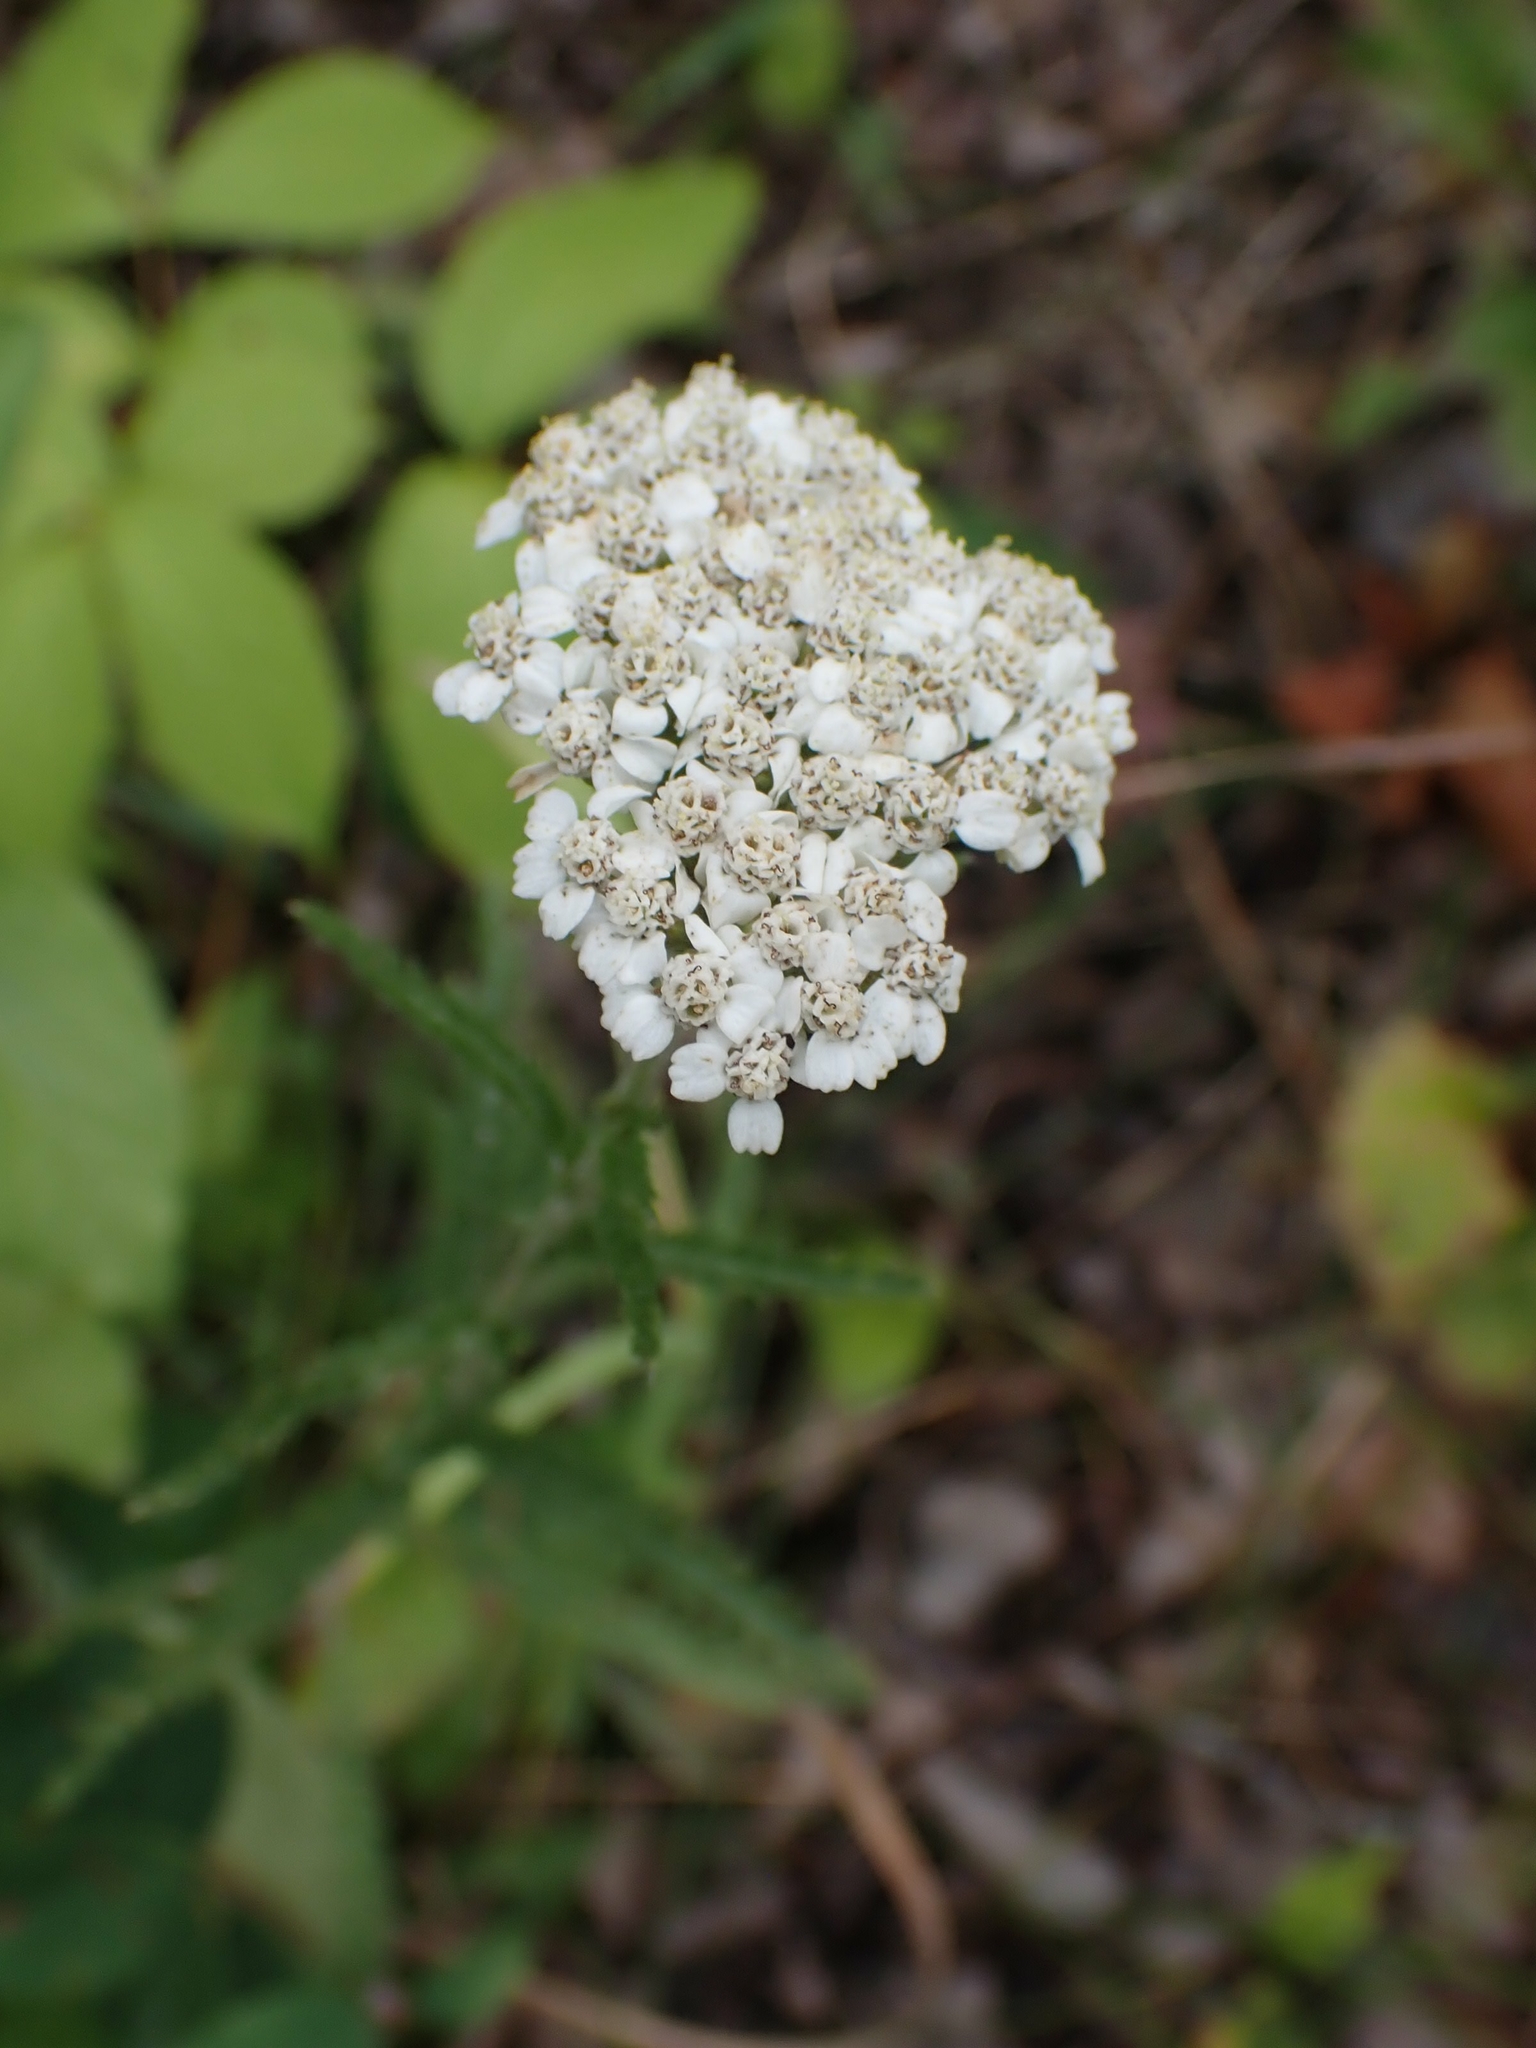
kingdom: Plantae
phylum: Tracheophyta
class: Magnoliopsida
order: Asterales
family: Asteraceae
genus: Achillea
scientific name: Achillea millefolium
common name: Yarrow
